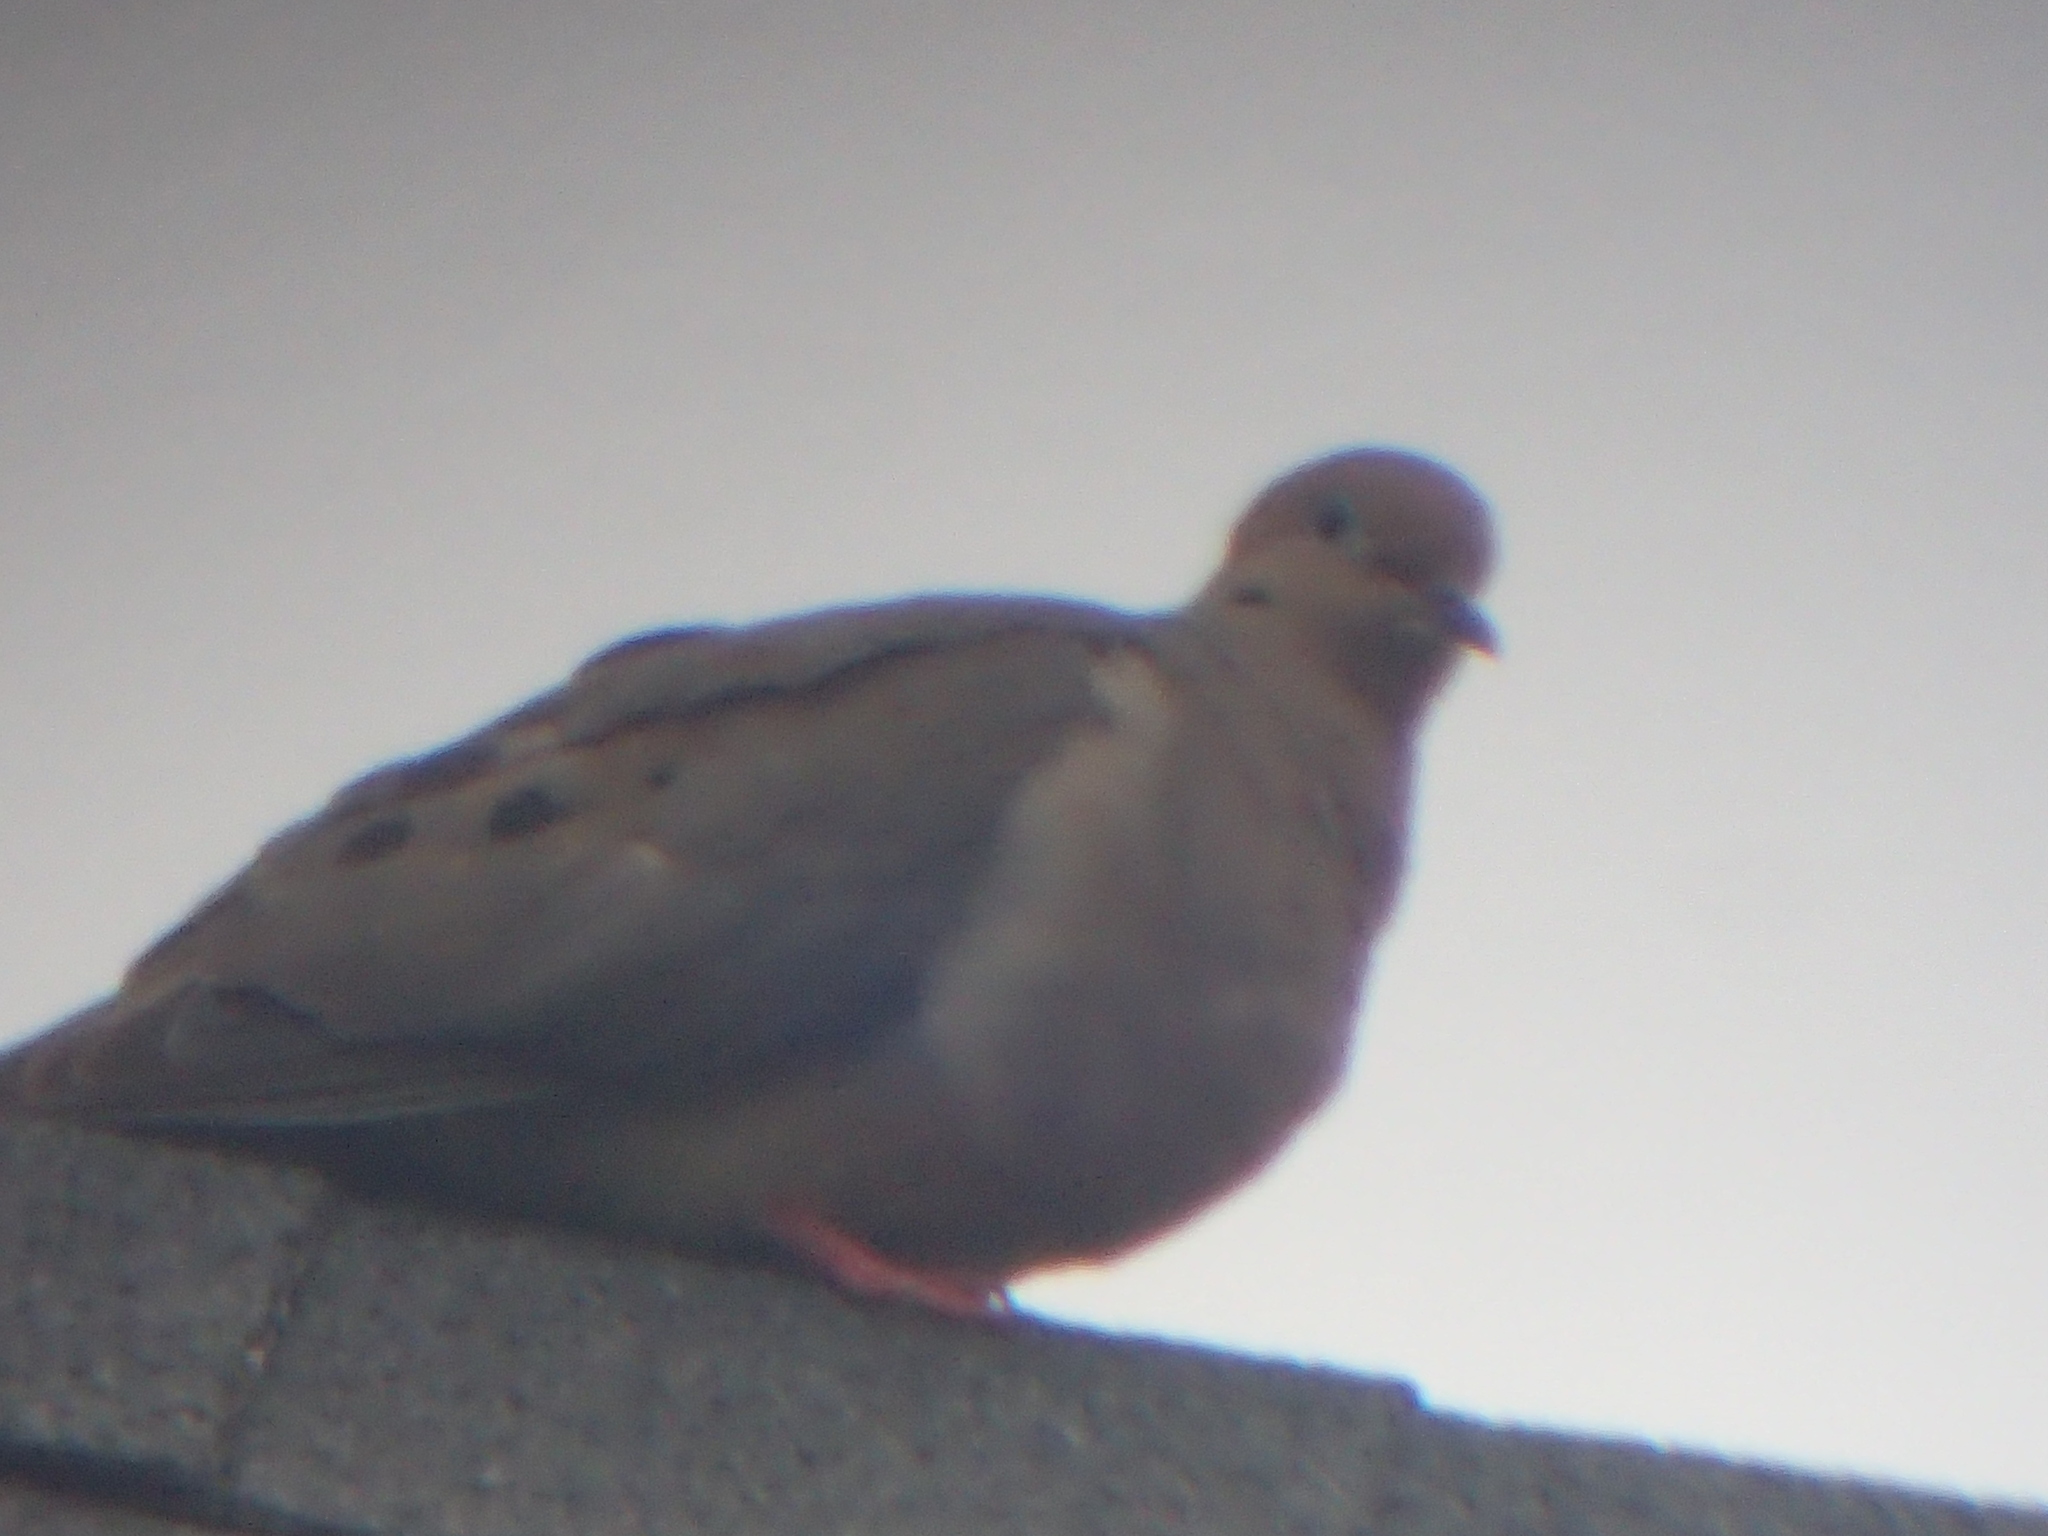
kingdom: Animalia
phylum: Chordata
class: Aves
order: Columbiformes
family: Columbidae
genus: Zenaida
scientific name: Zenaida macroura
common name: Mourning dove
